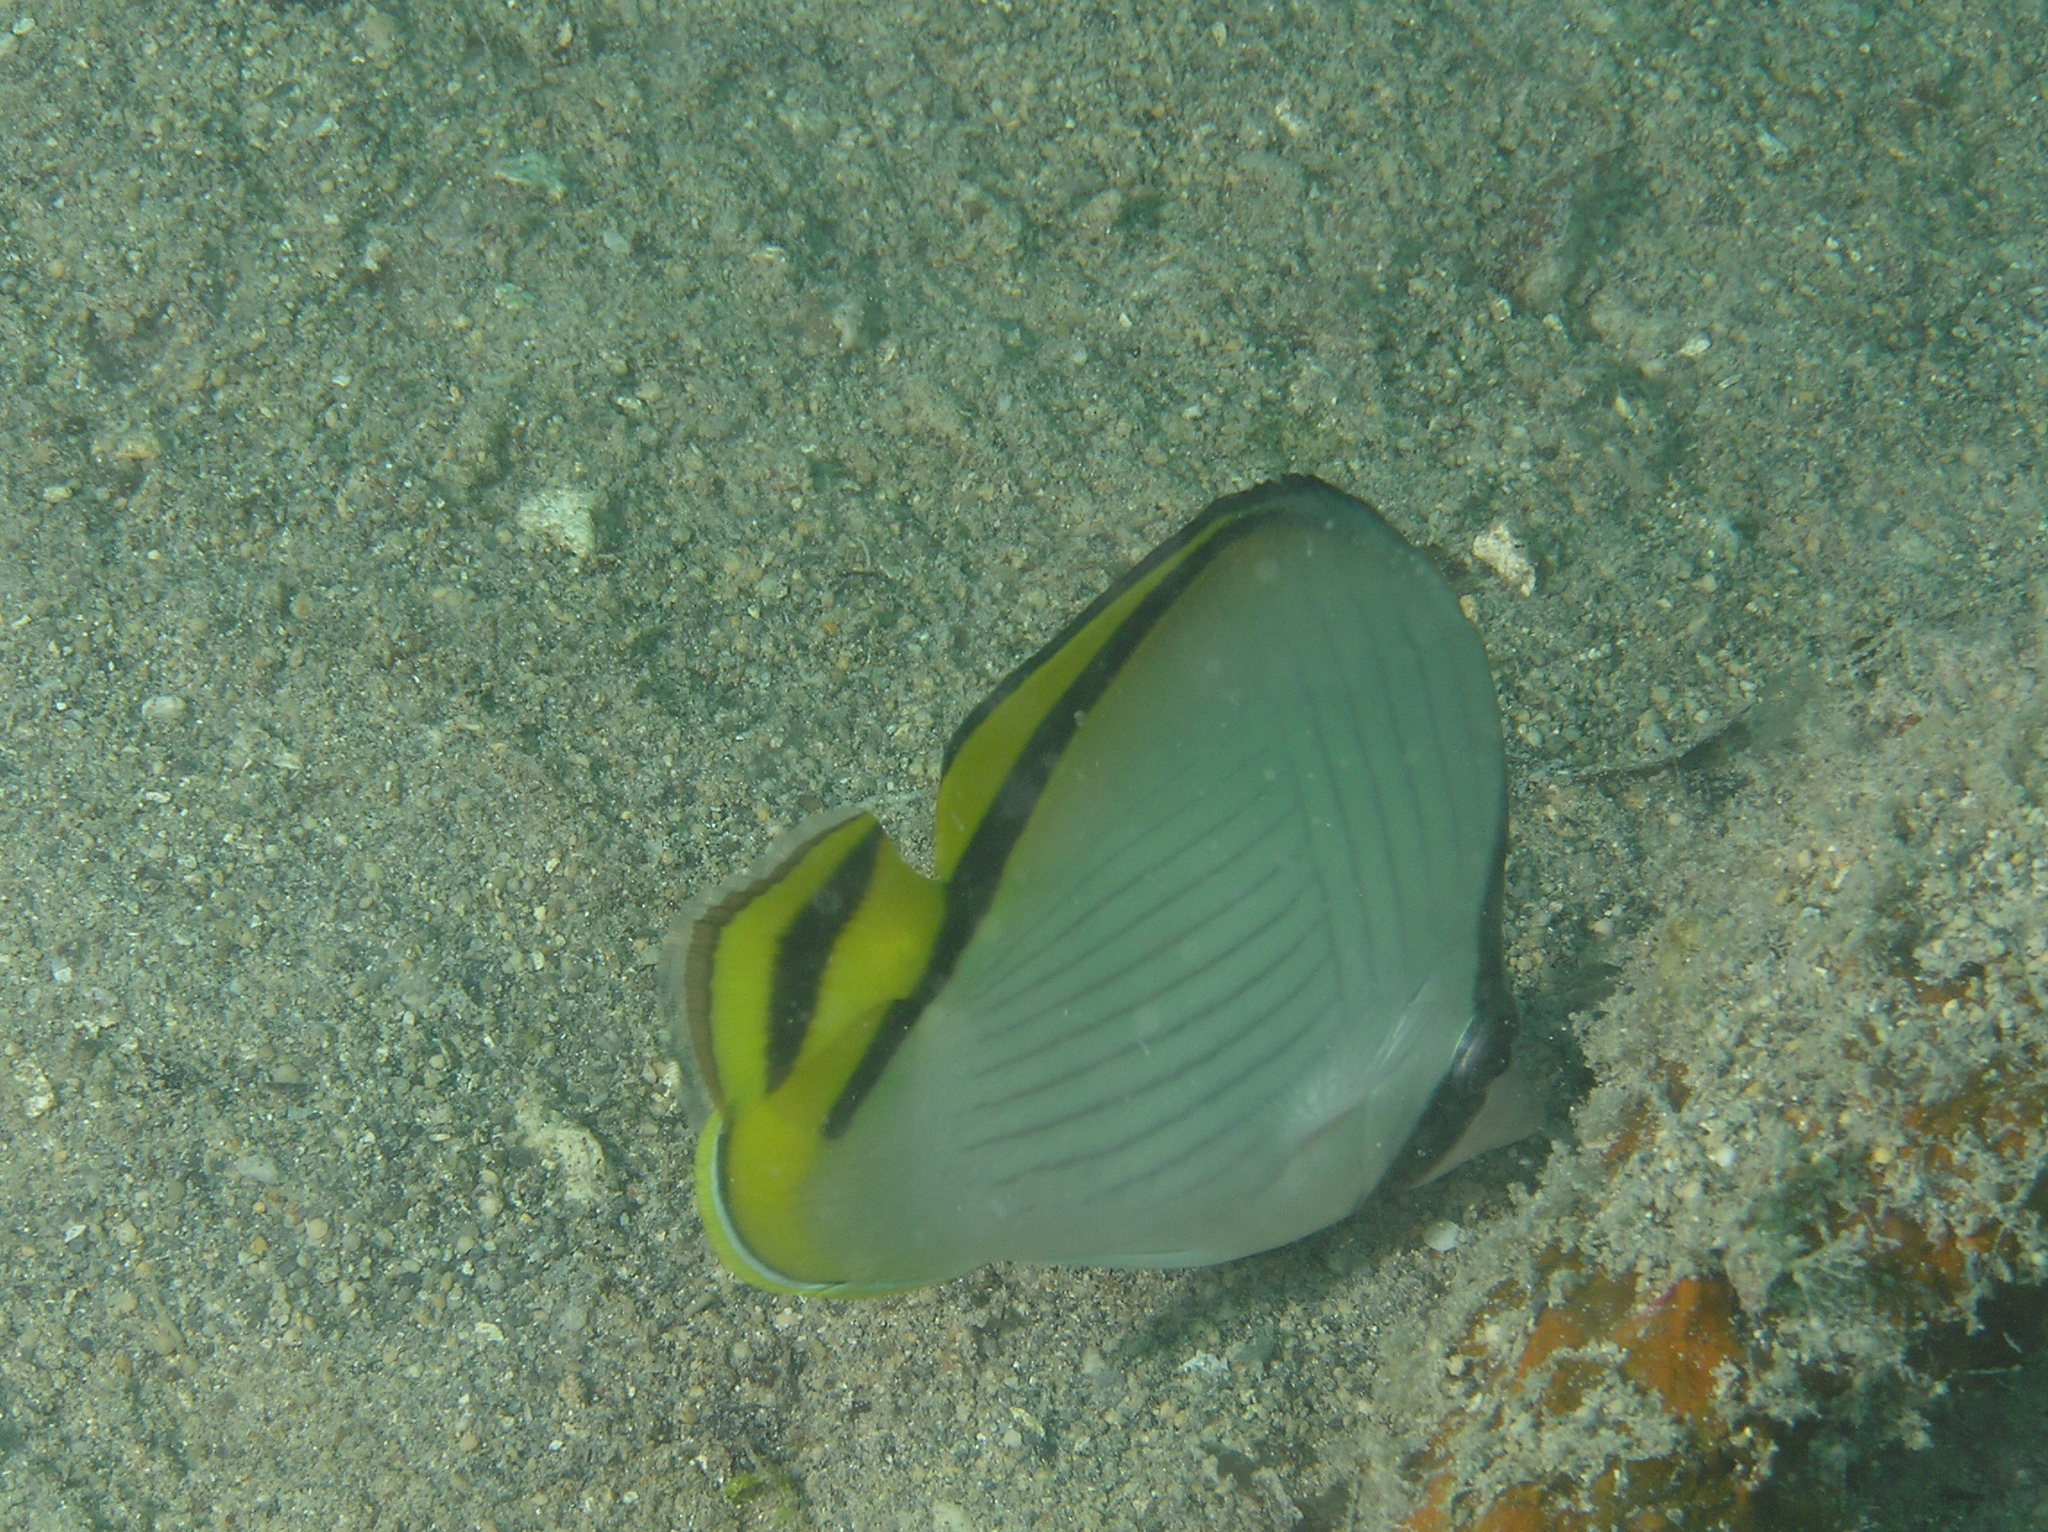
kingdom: Animalia
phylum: Chordata
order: Perciformes
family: Chaetodontidae
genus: Chaetodon
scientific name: Chaetodon vagabundus
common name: Vagabond butterflyfish
